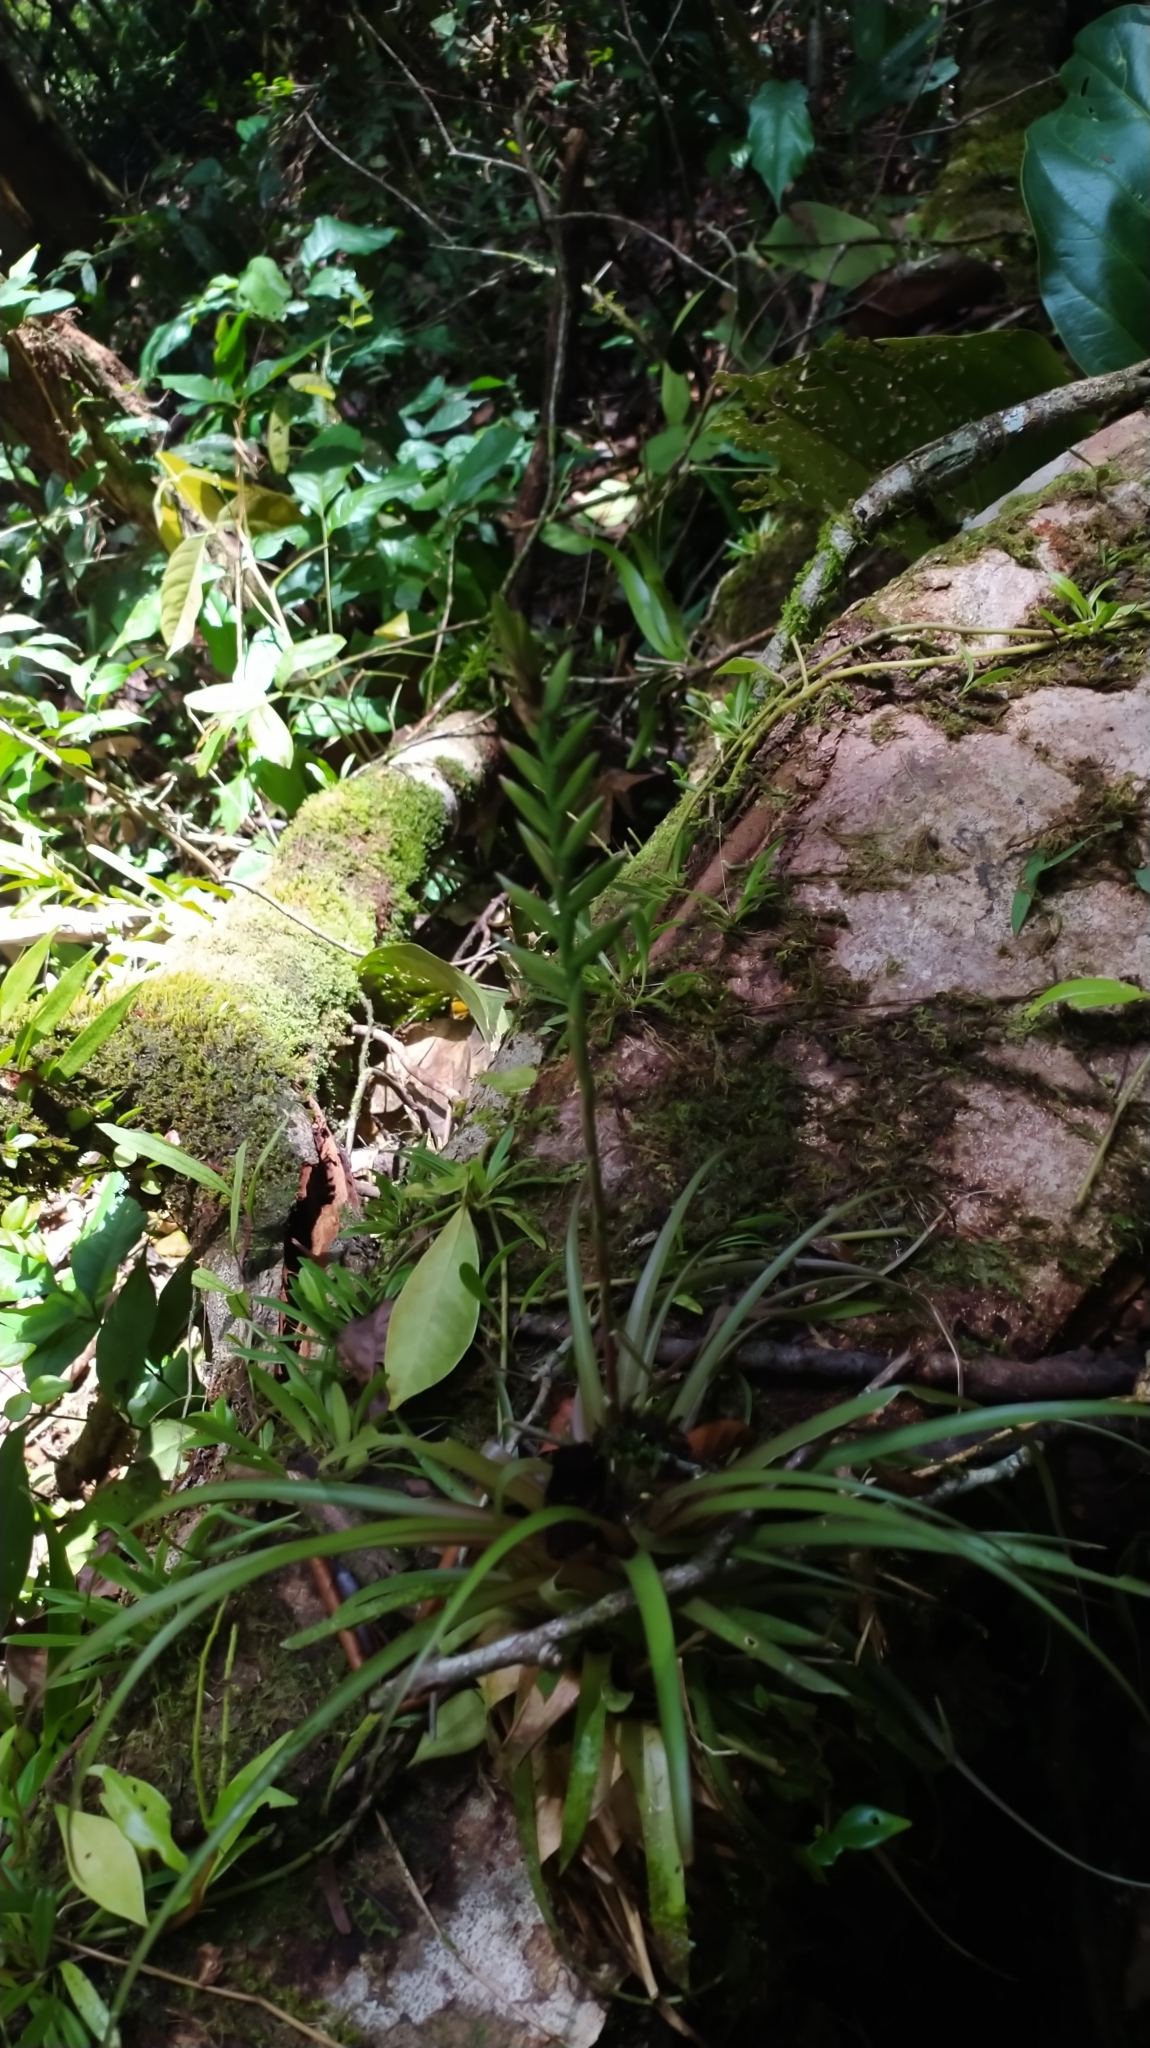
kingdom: Plantae
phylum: Tracheophyta
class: Liliopsida
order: Poales
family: Bromeliaceae
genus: Lemeltonia
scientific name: Lemeltonia monadelpha
